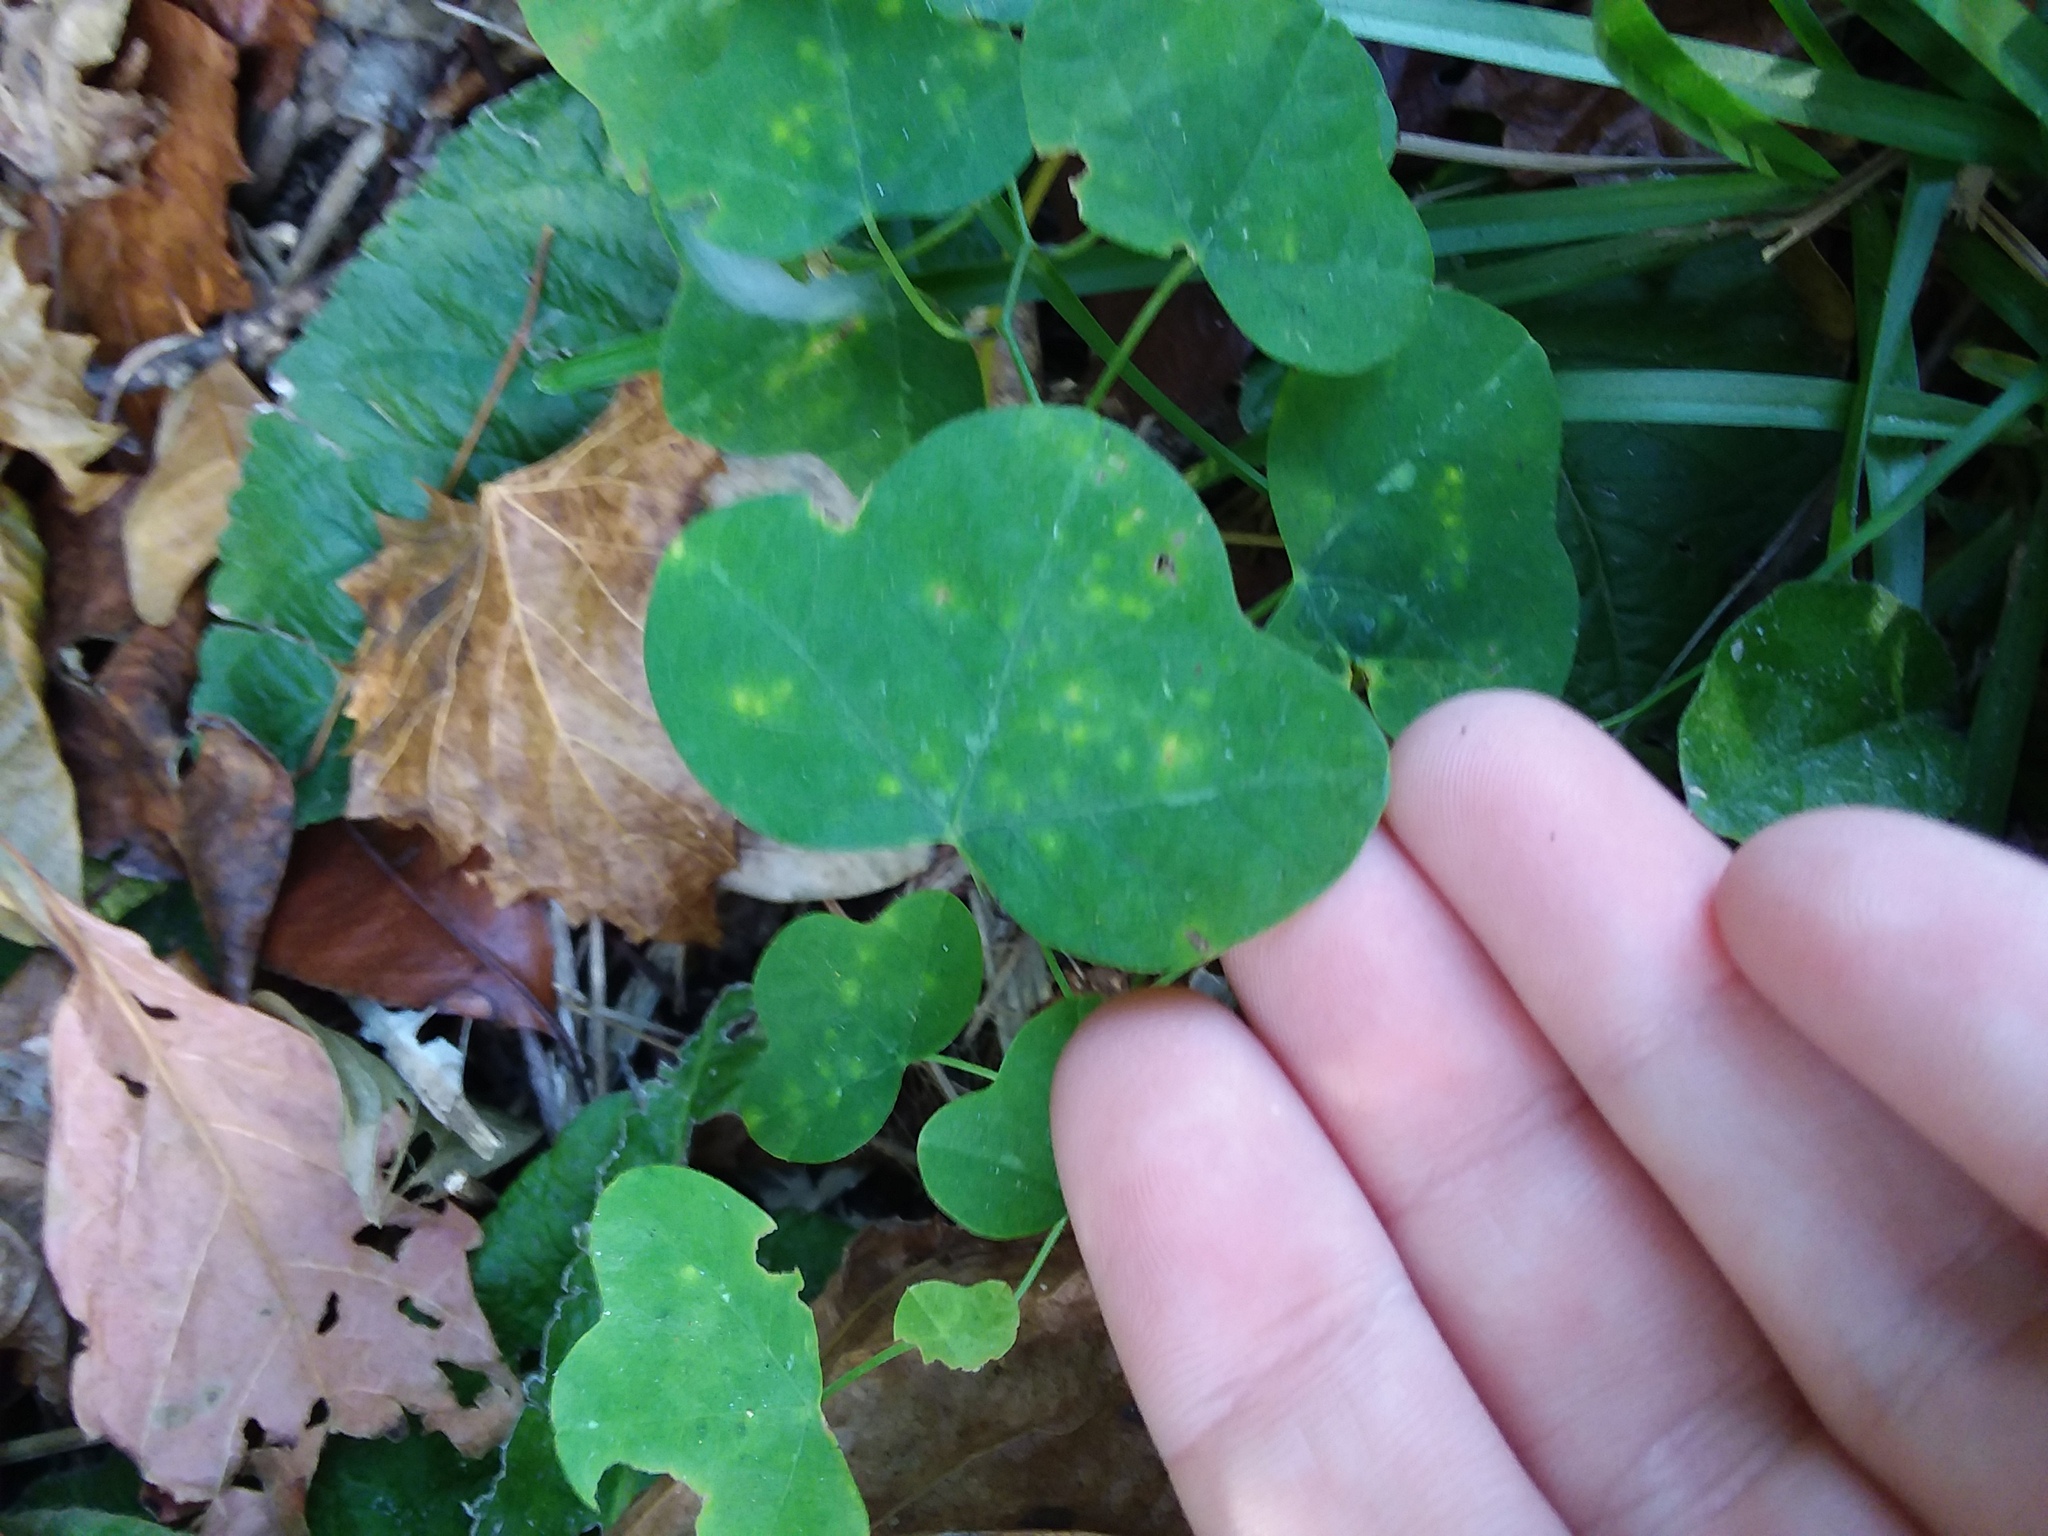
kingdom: Plantae
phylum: Tracheophyta
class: Magnoliopsida
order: Malpighiales
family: Passifloraceae
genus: Passiflora
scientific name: Passiflora lutea
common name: Yellow passionflower
